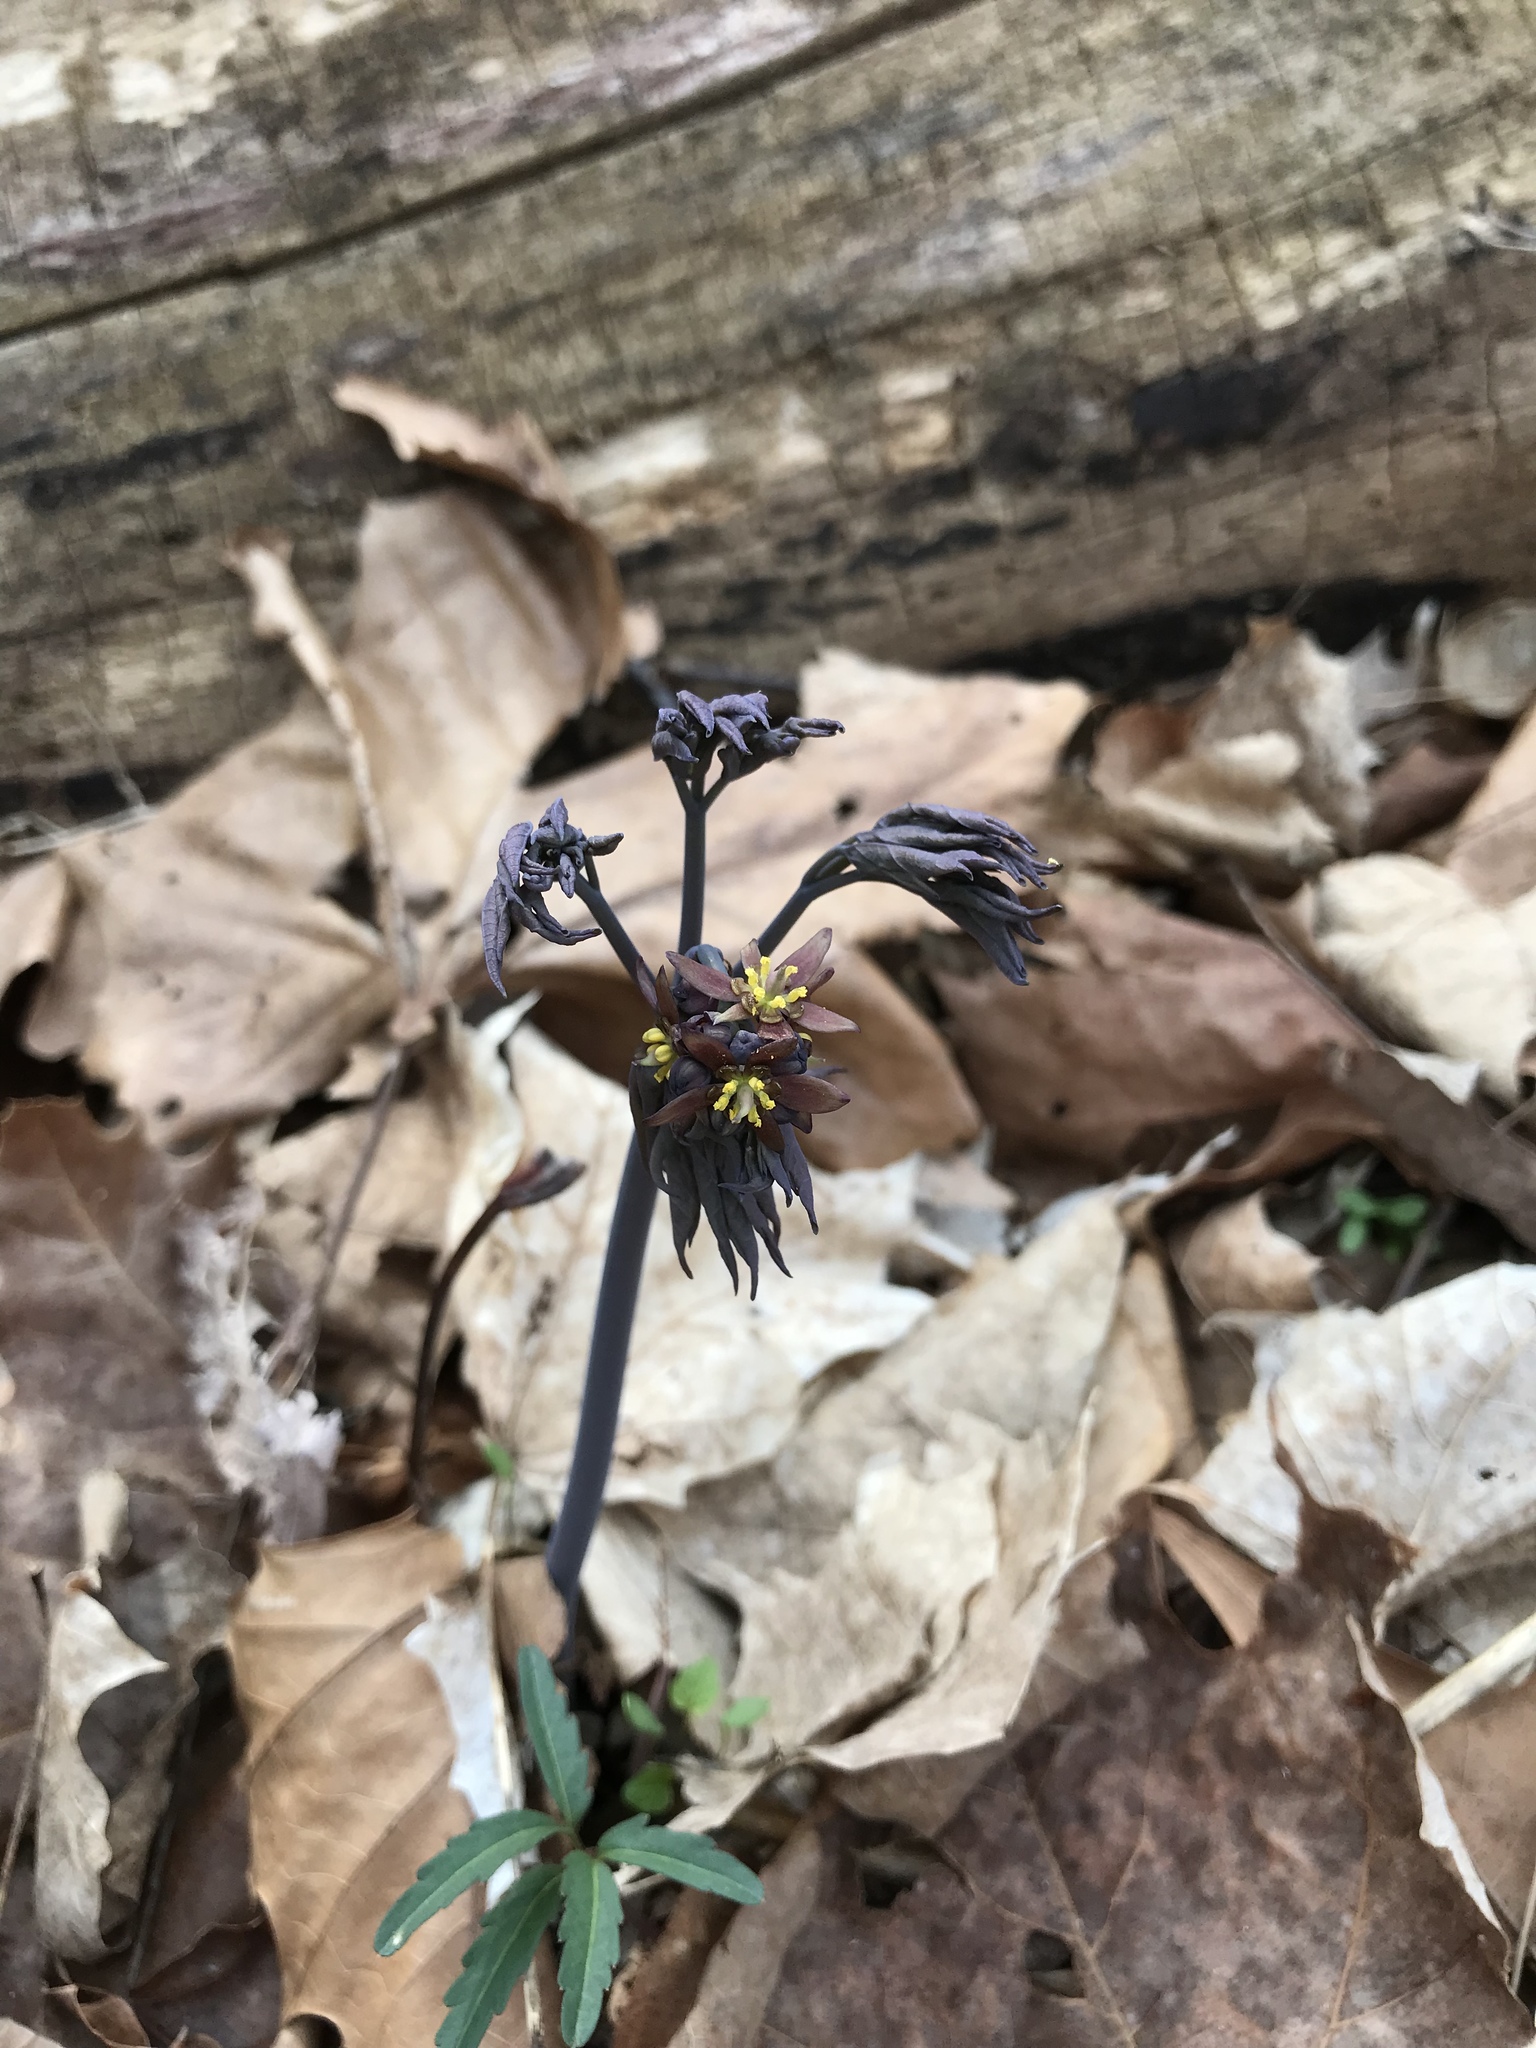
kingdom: Plantae
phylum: Tracheophyta
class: Magnoliopsida
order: Ranunculales
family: Berberidaceae
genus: Caulophyllum
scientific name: Caulophyllum giganteum
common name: Blue cohosh
